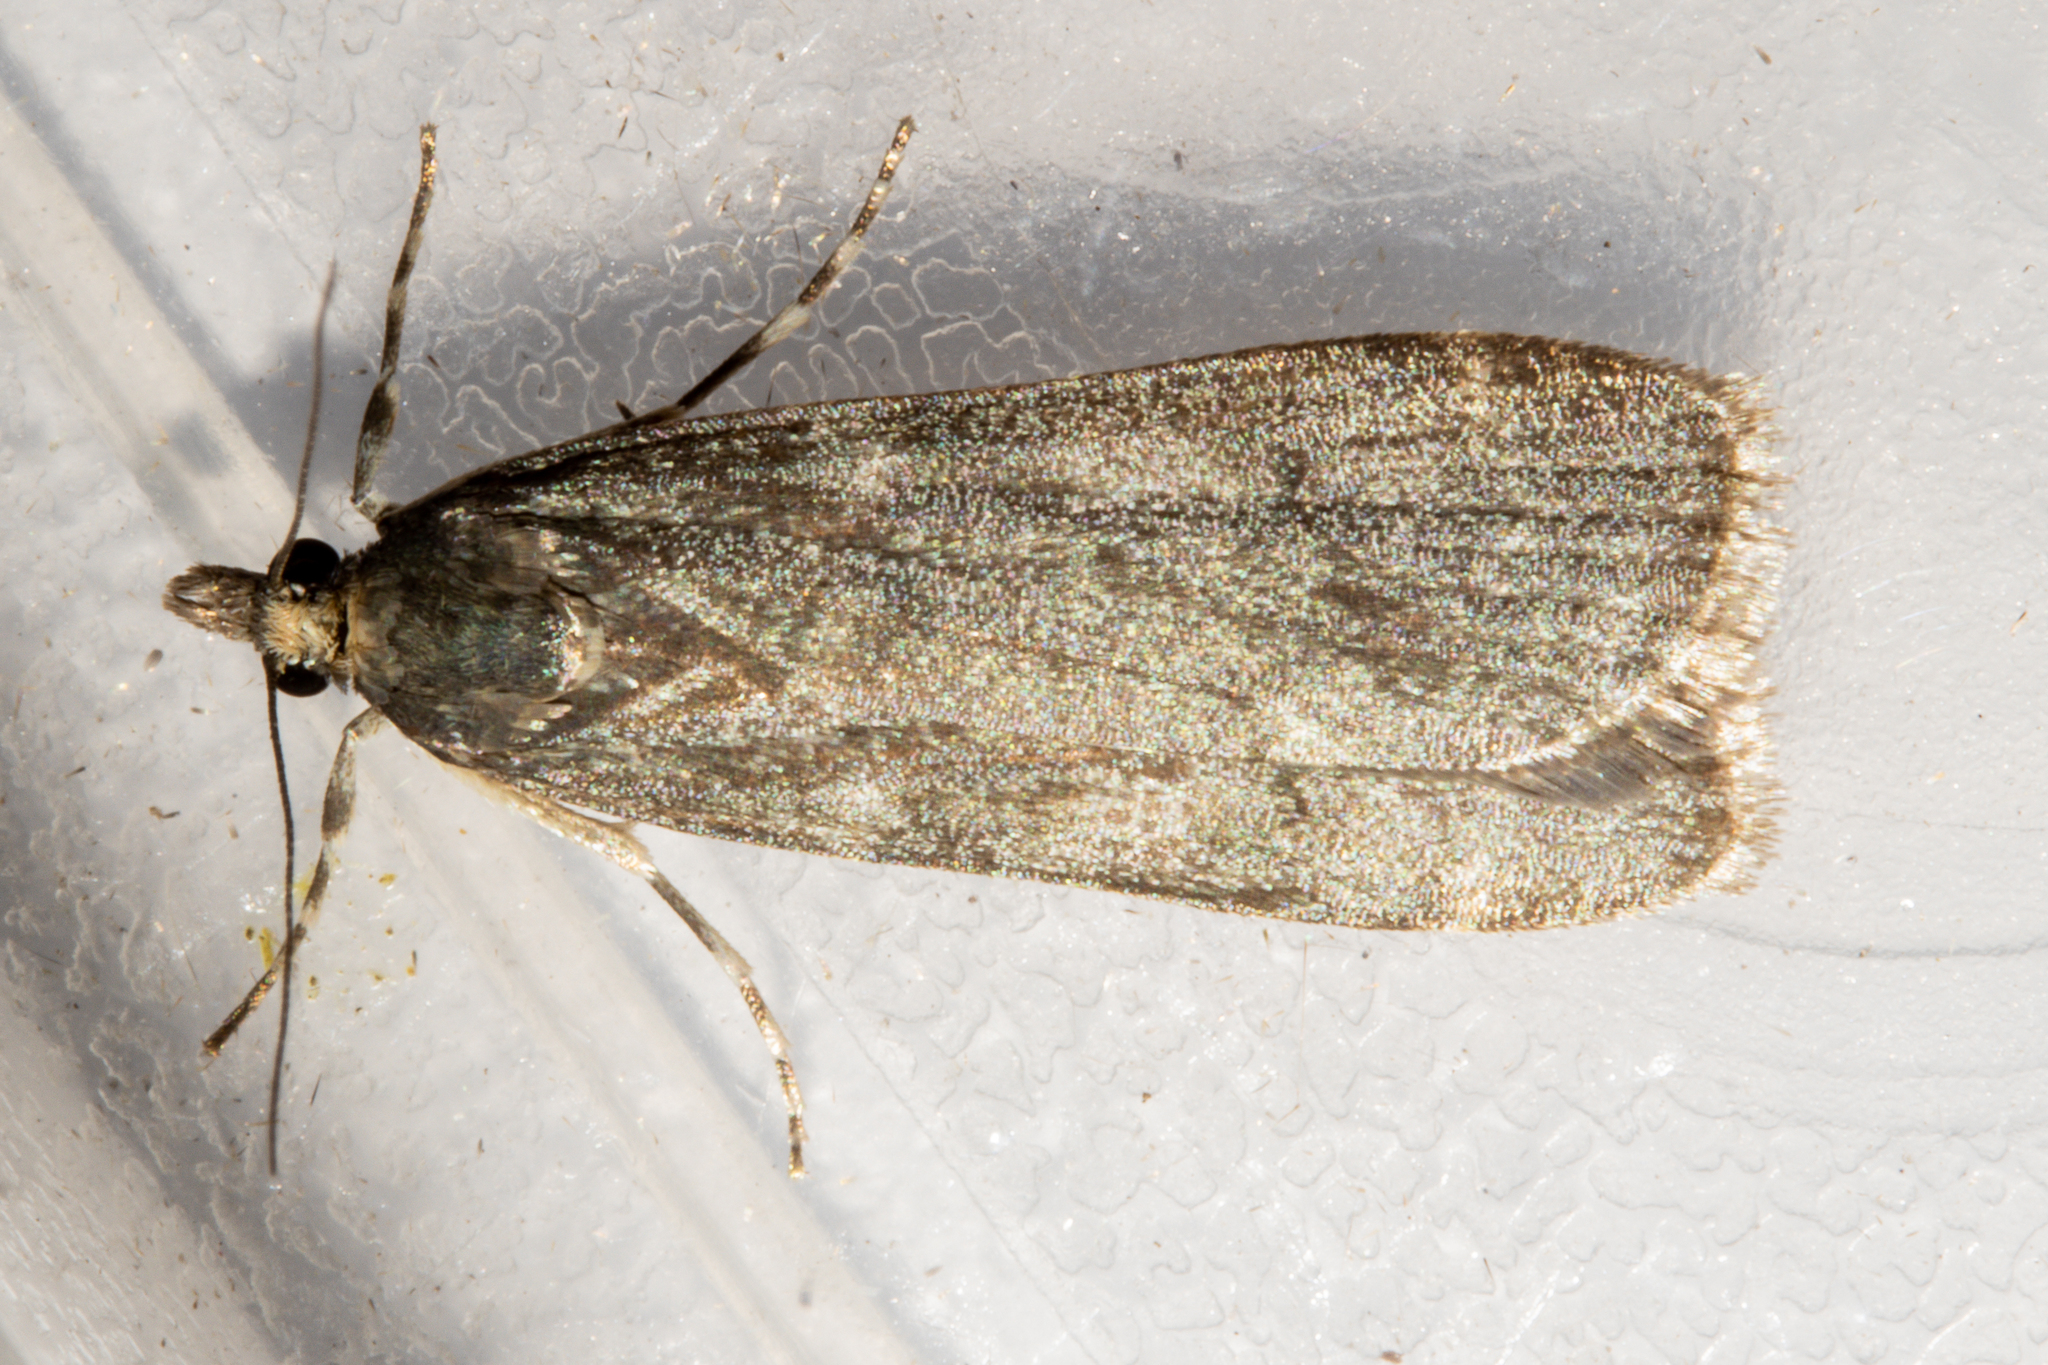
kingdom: Animalia
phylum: Arthropoda
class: Insecta
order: Lepidoptera
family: Crambidae
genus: Eudonia
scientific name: Eudonia cataxesta
